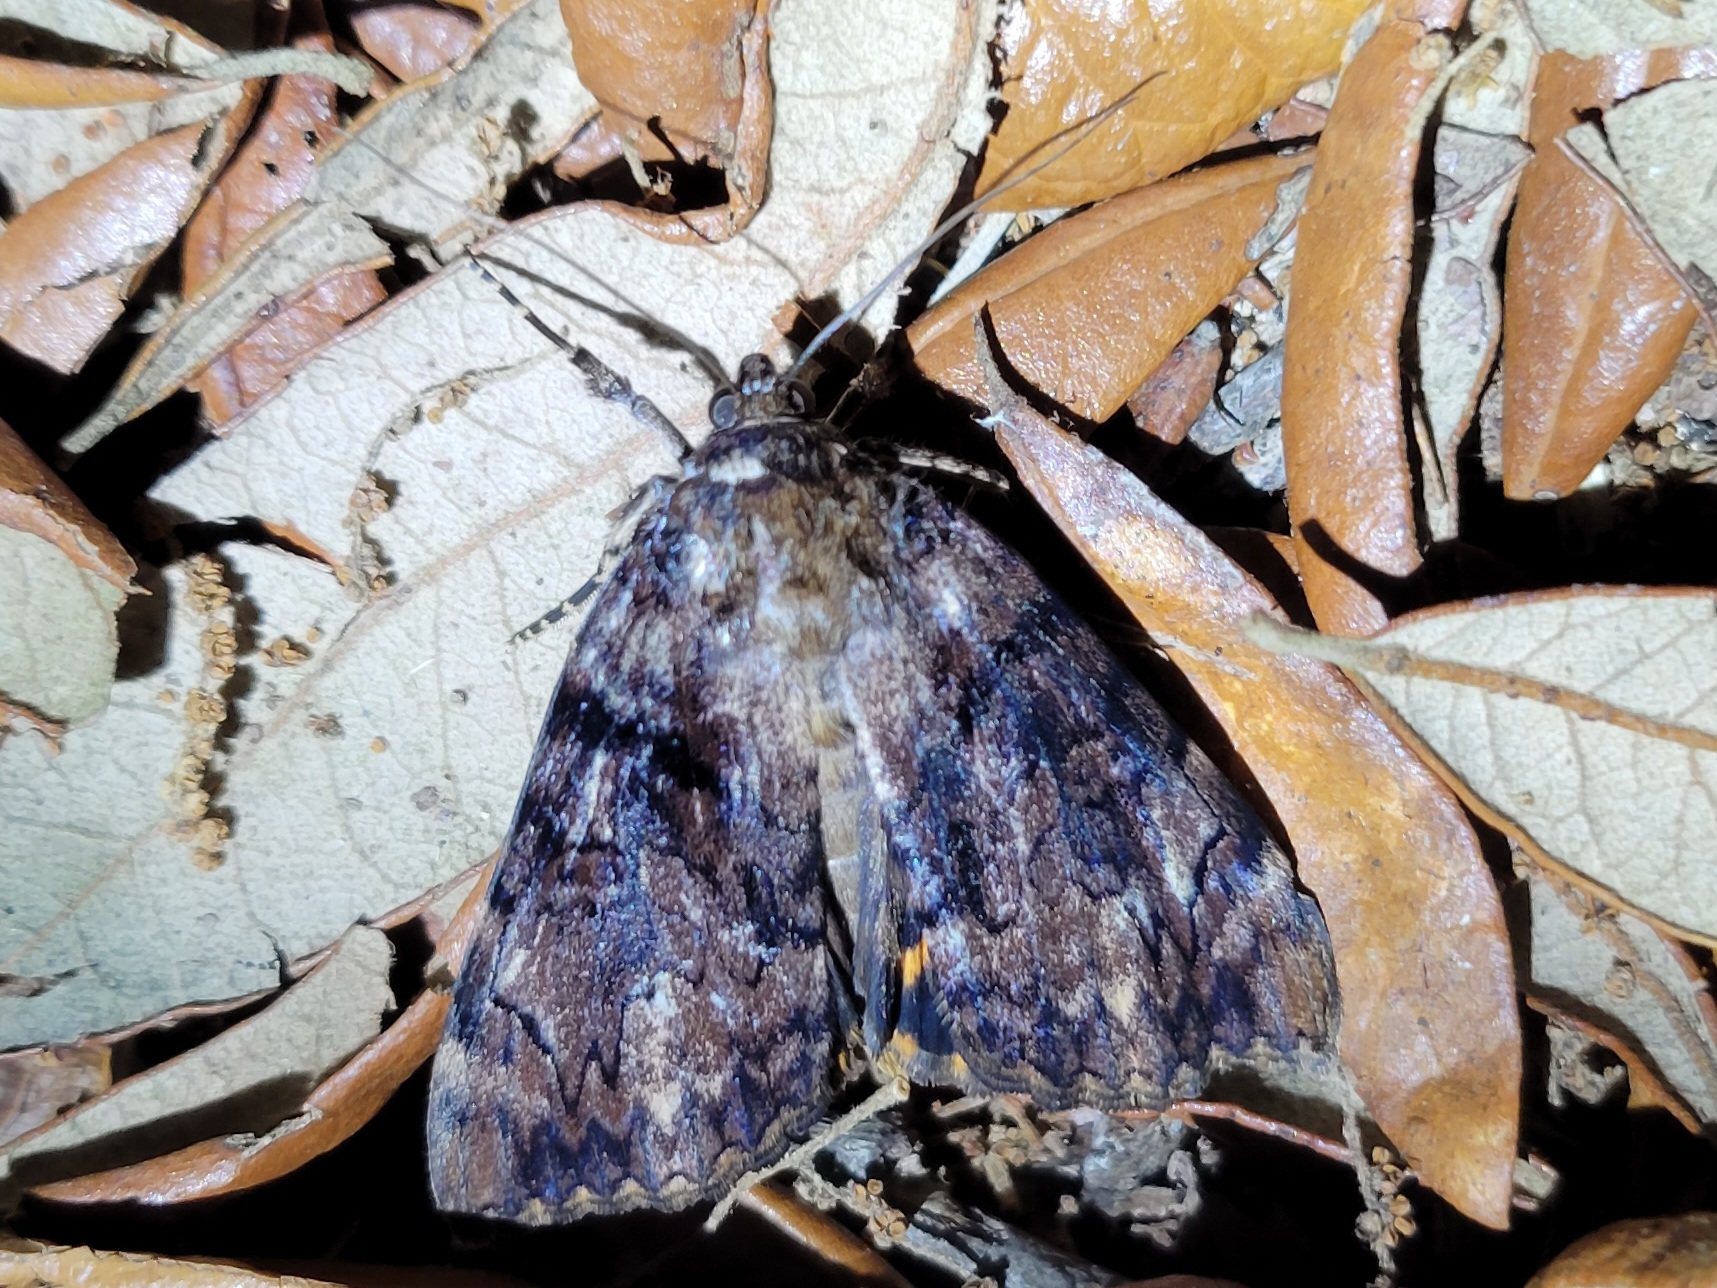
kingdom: Animalia
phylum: Arthropoda
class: Insecta
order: Lepidoptera
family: Erebidae
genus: Catocala
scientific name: Catocala delilah
